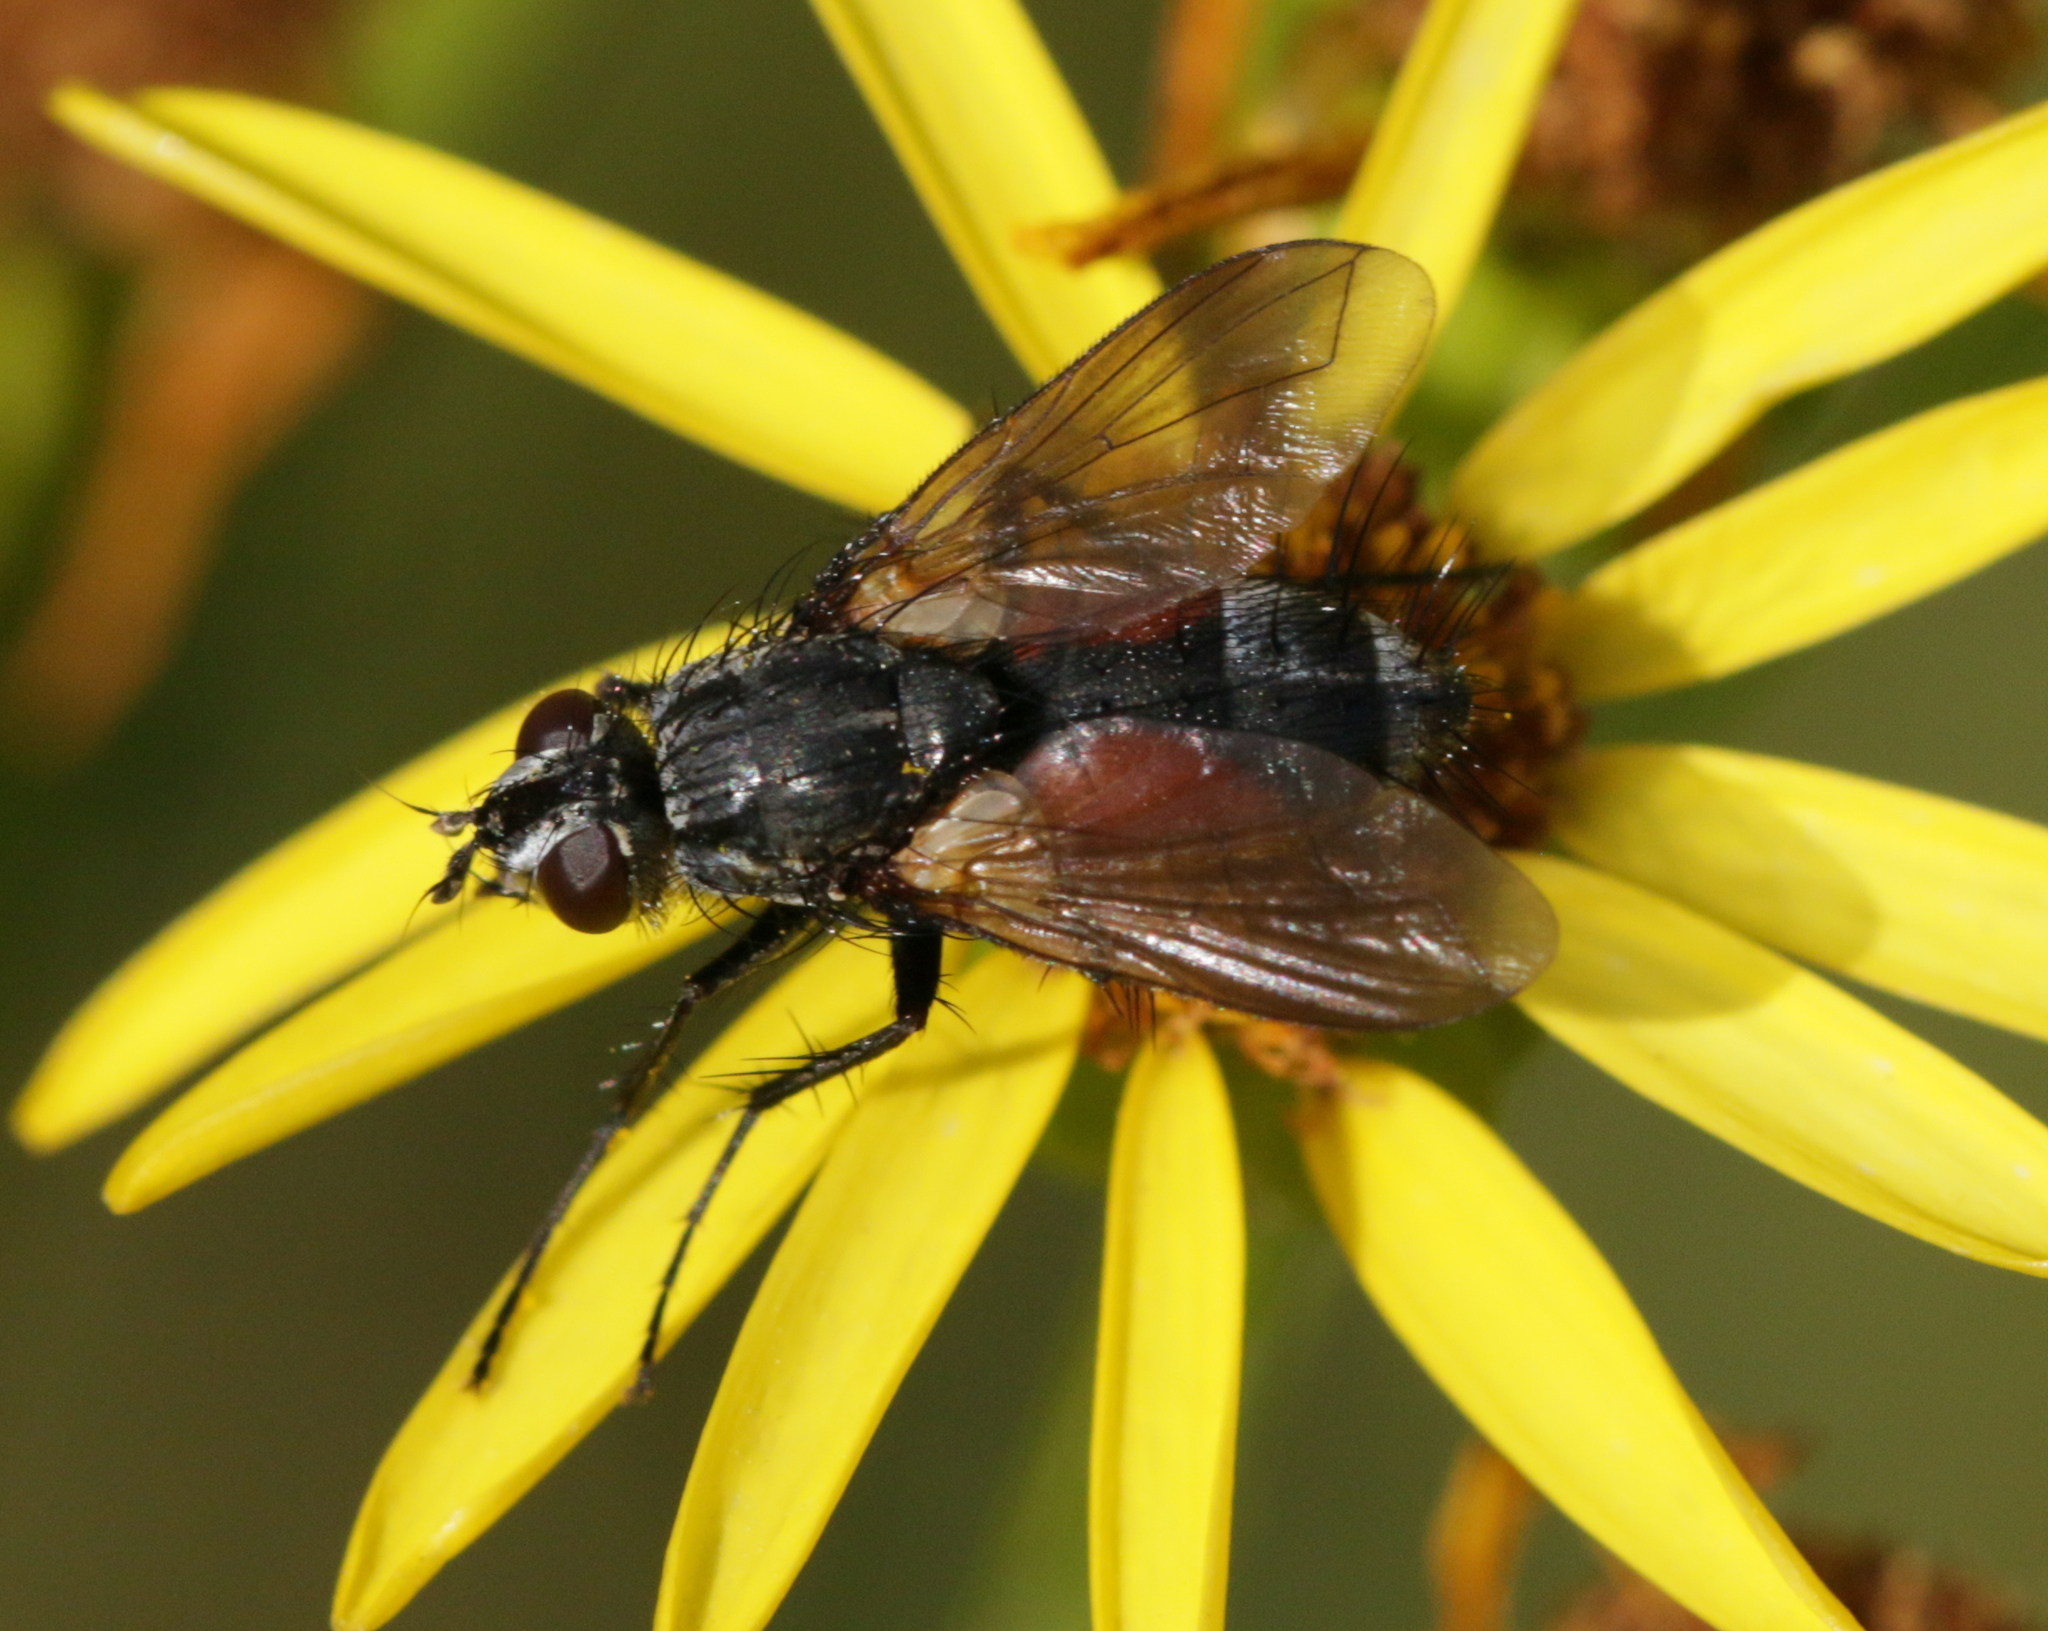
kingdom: Animalia
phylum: Arthropoda
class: Insecta
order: Diptera
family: Tachinidae
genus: Eriothrix
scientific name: Eriothrix rufomaculatus
